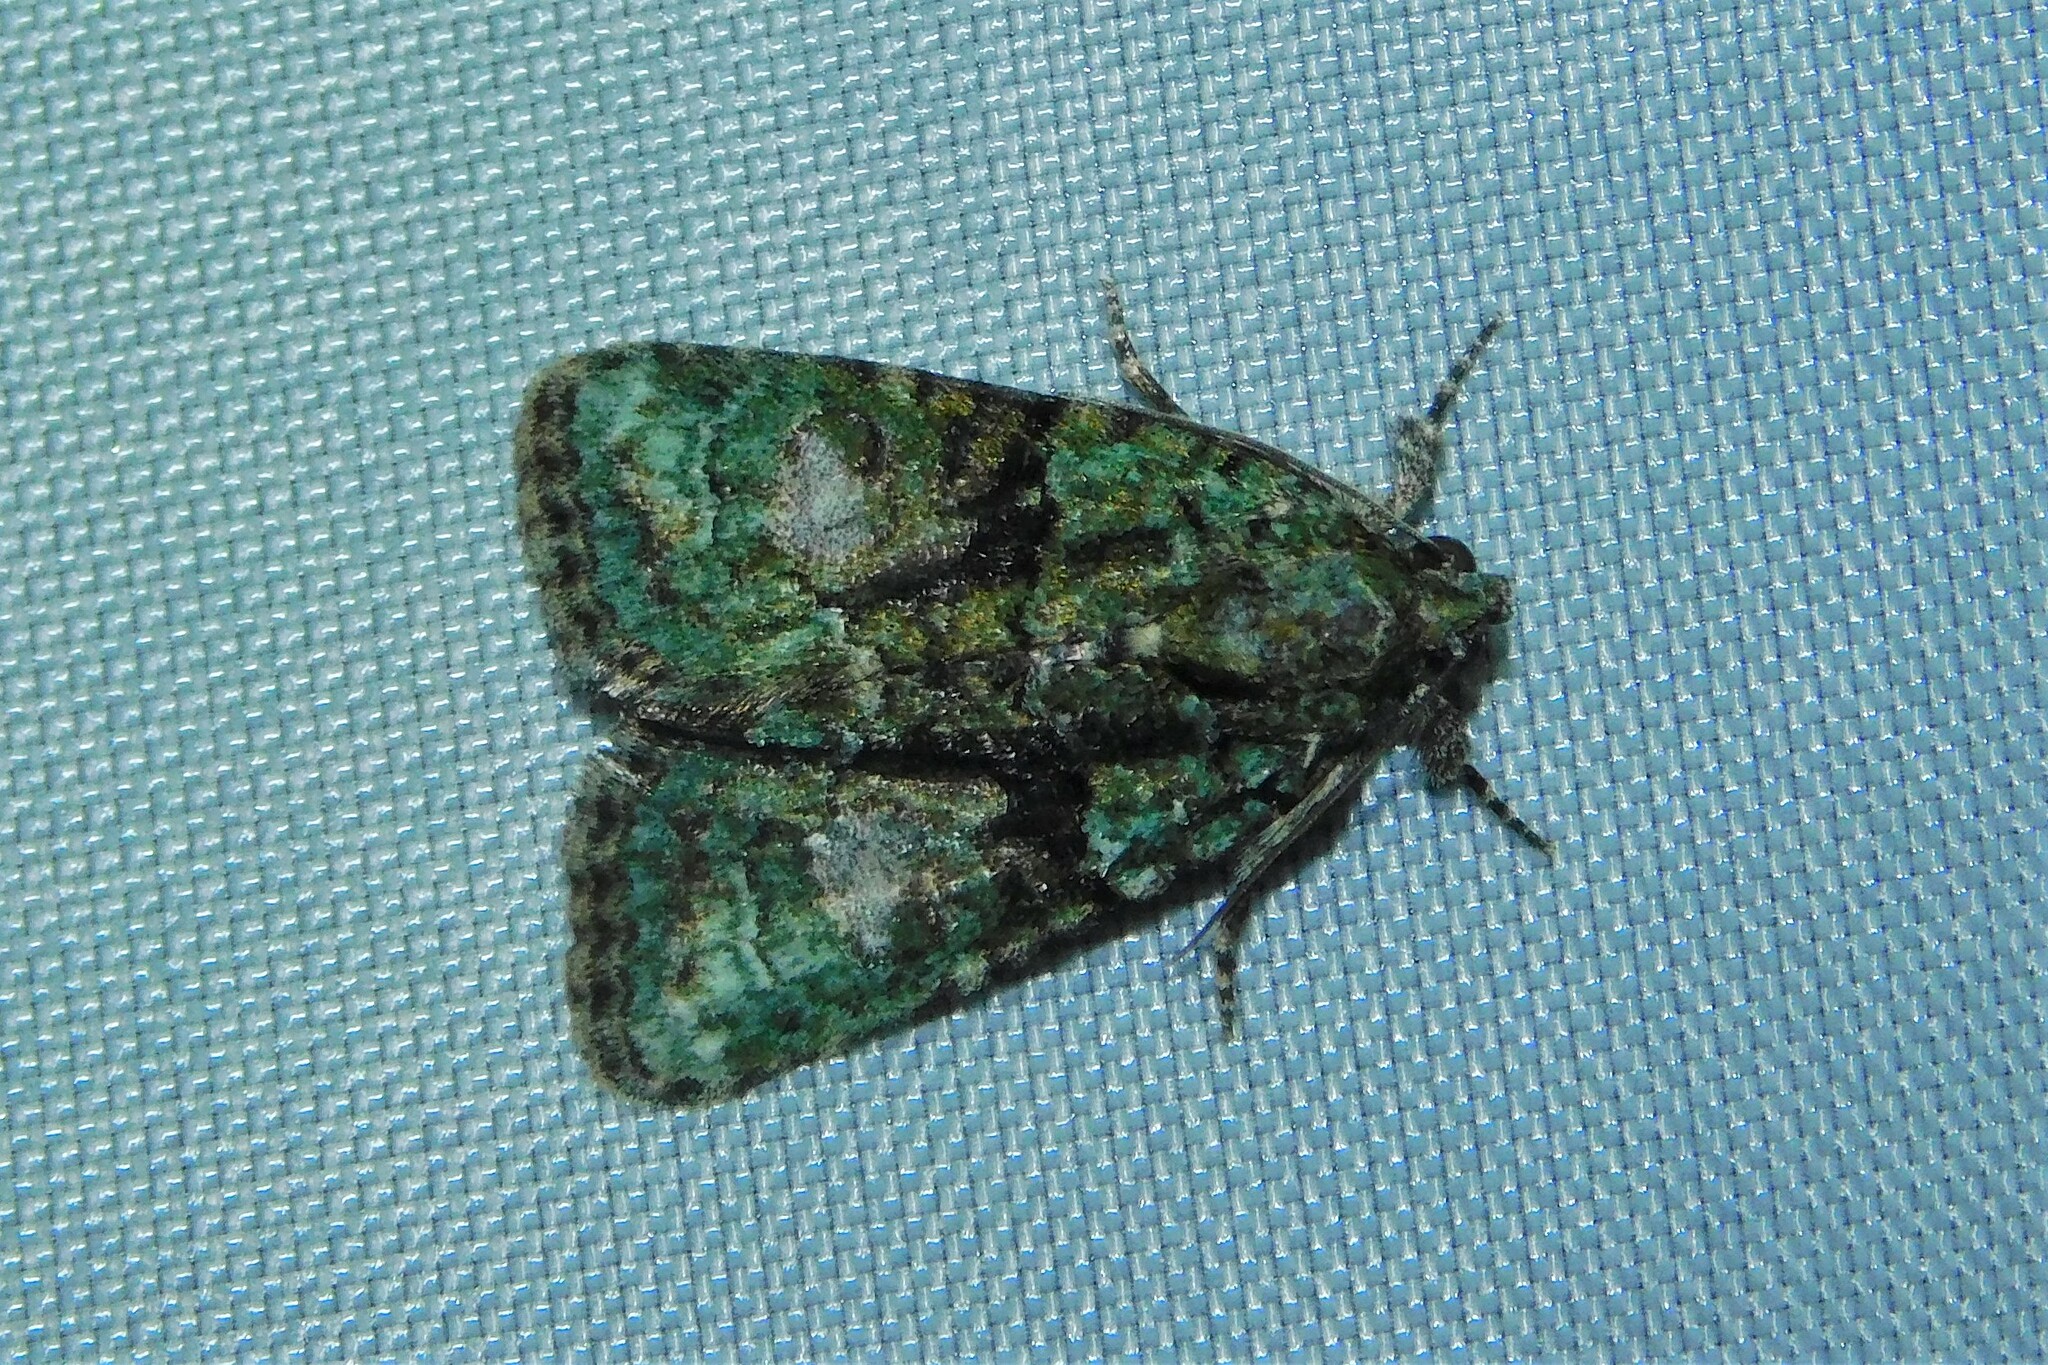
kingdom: Animalia
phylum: Arthropoda
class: Insecta
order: Lepidoptera
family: Noctuidae
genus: Cryphia
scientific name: Cryphia algae
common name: Tree-lichen beauty
